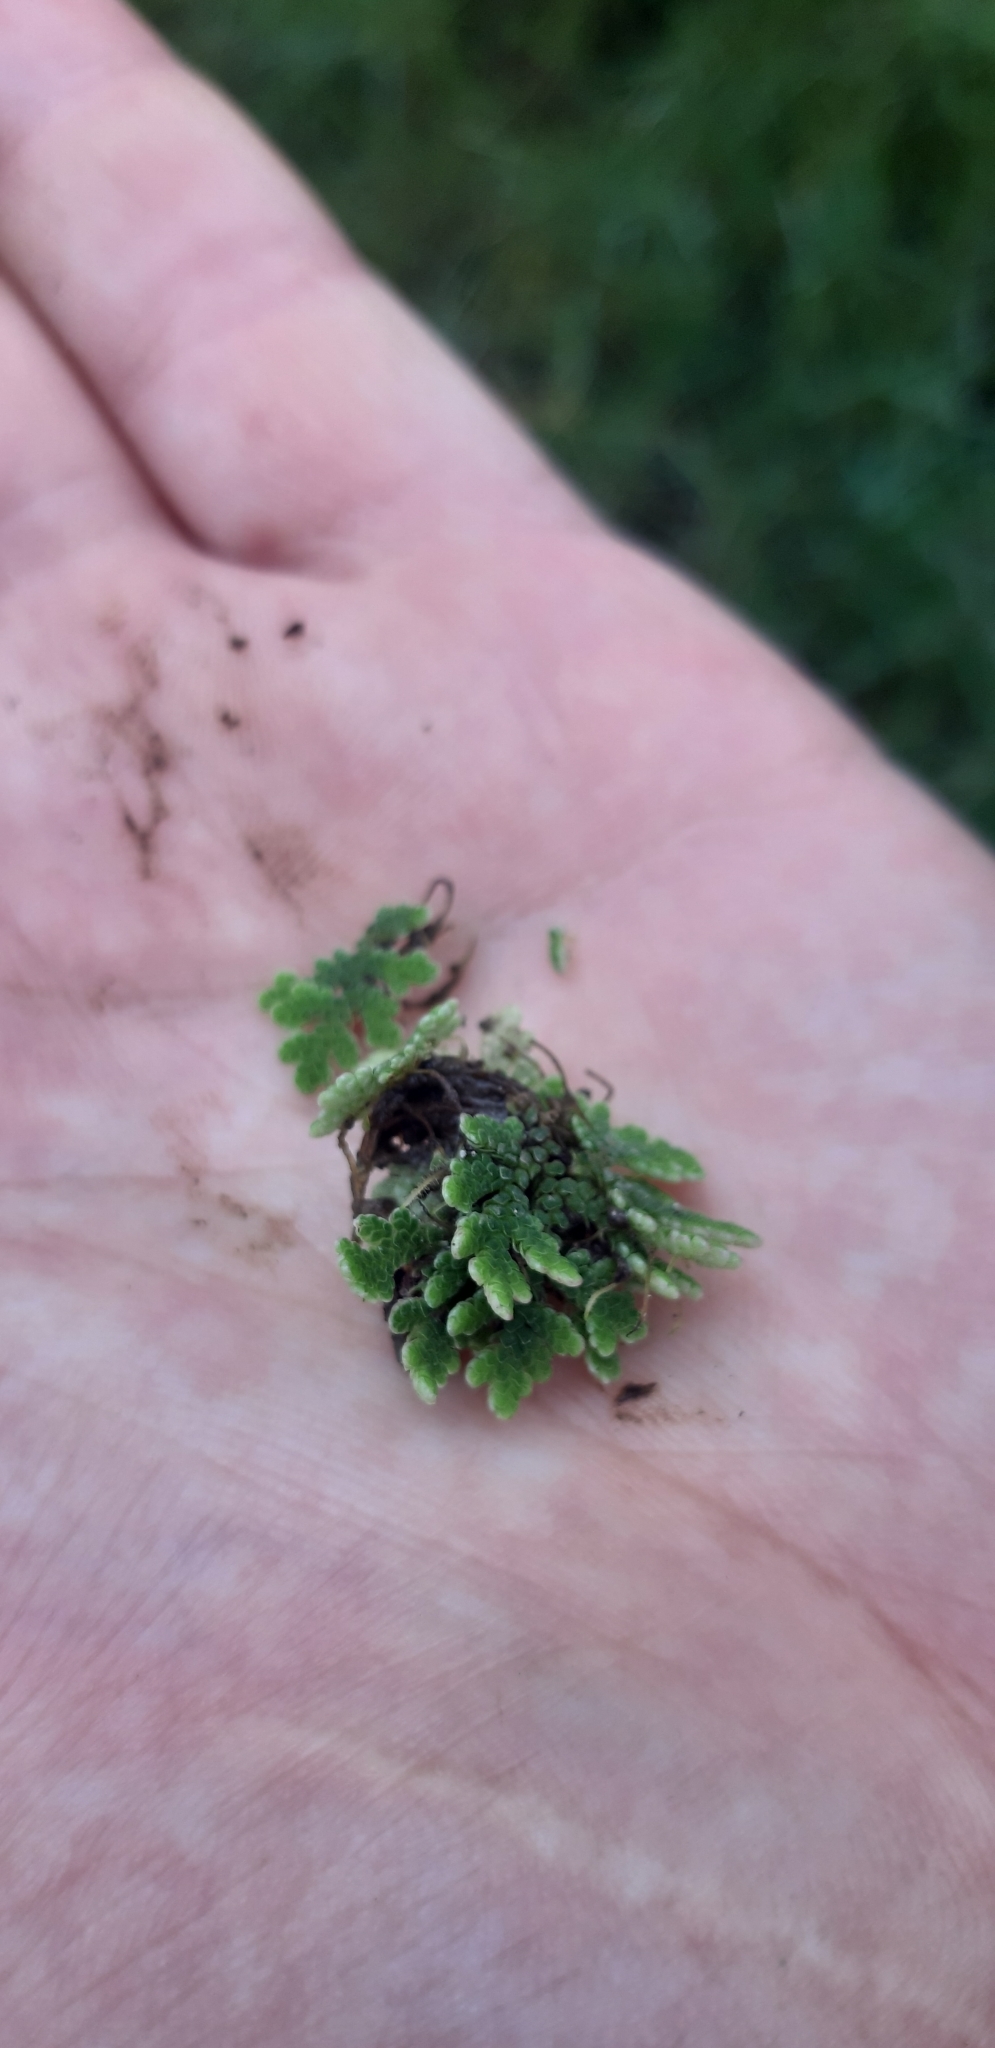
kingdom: Plantae
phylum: Tracheophyta
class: Polypodiopsida
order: Salviniales
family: Salviniaceae
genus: Azolla
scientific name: Azolla filiculoides
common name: Water fern
